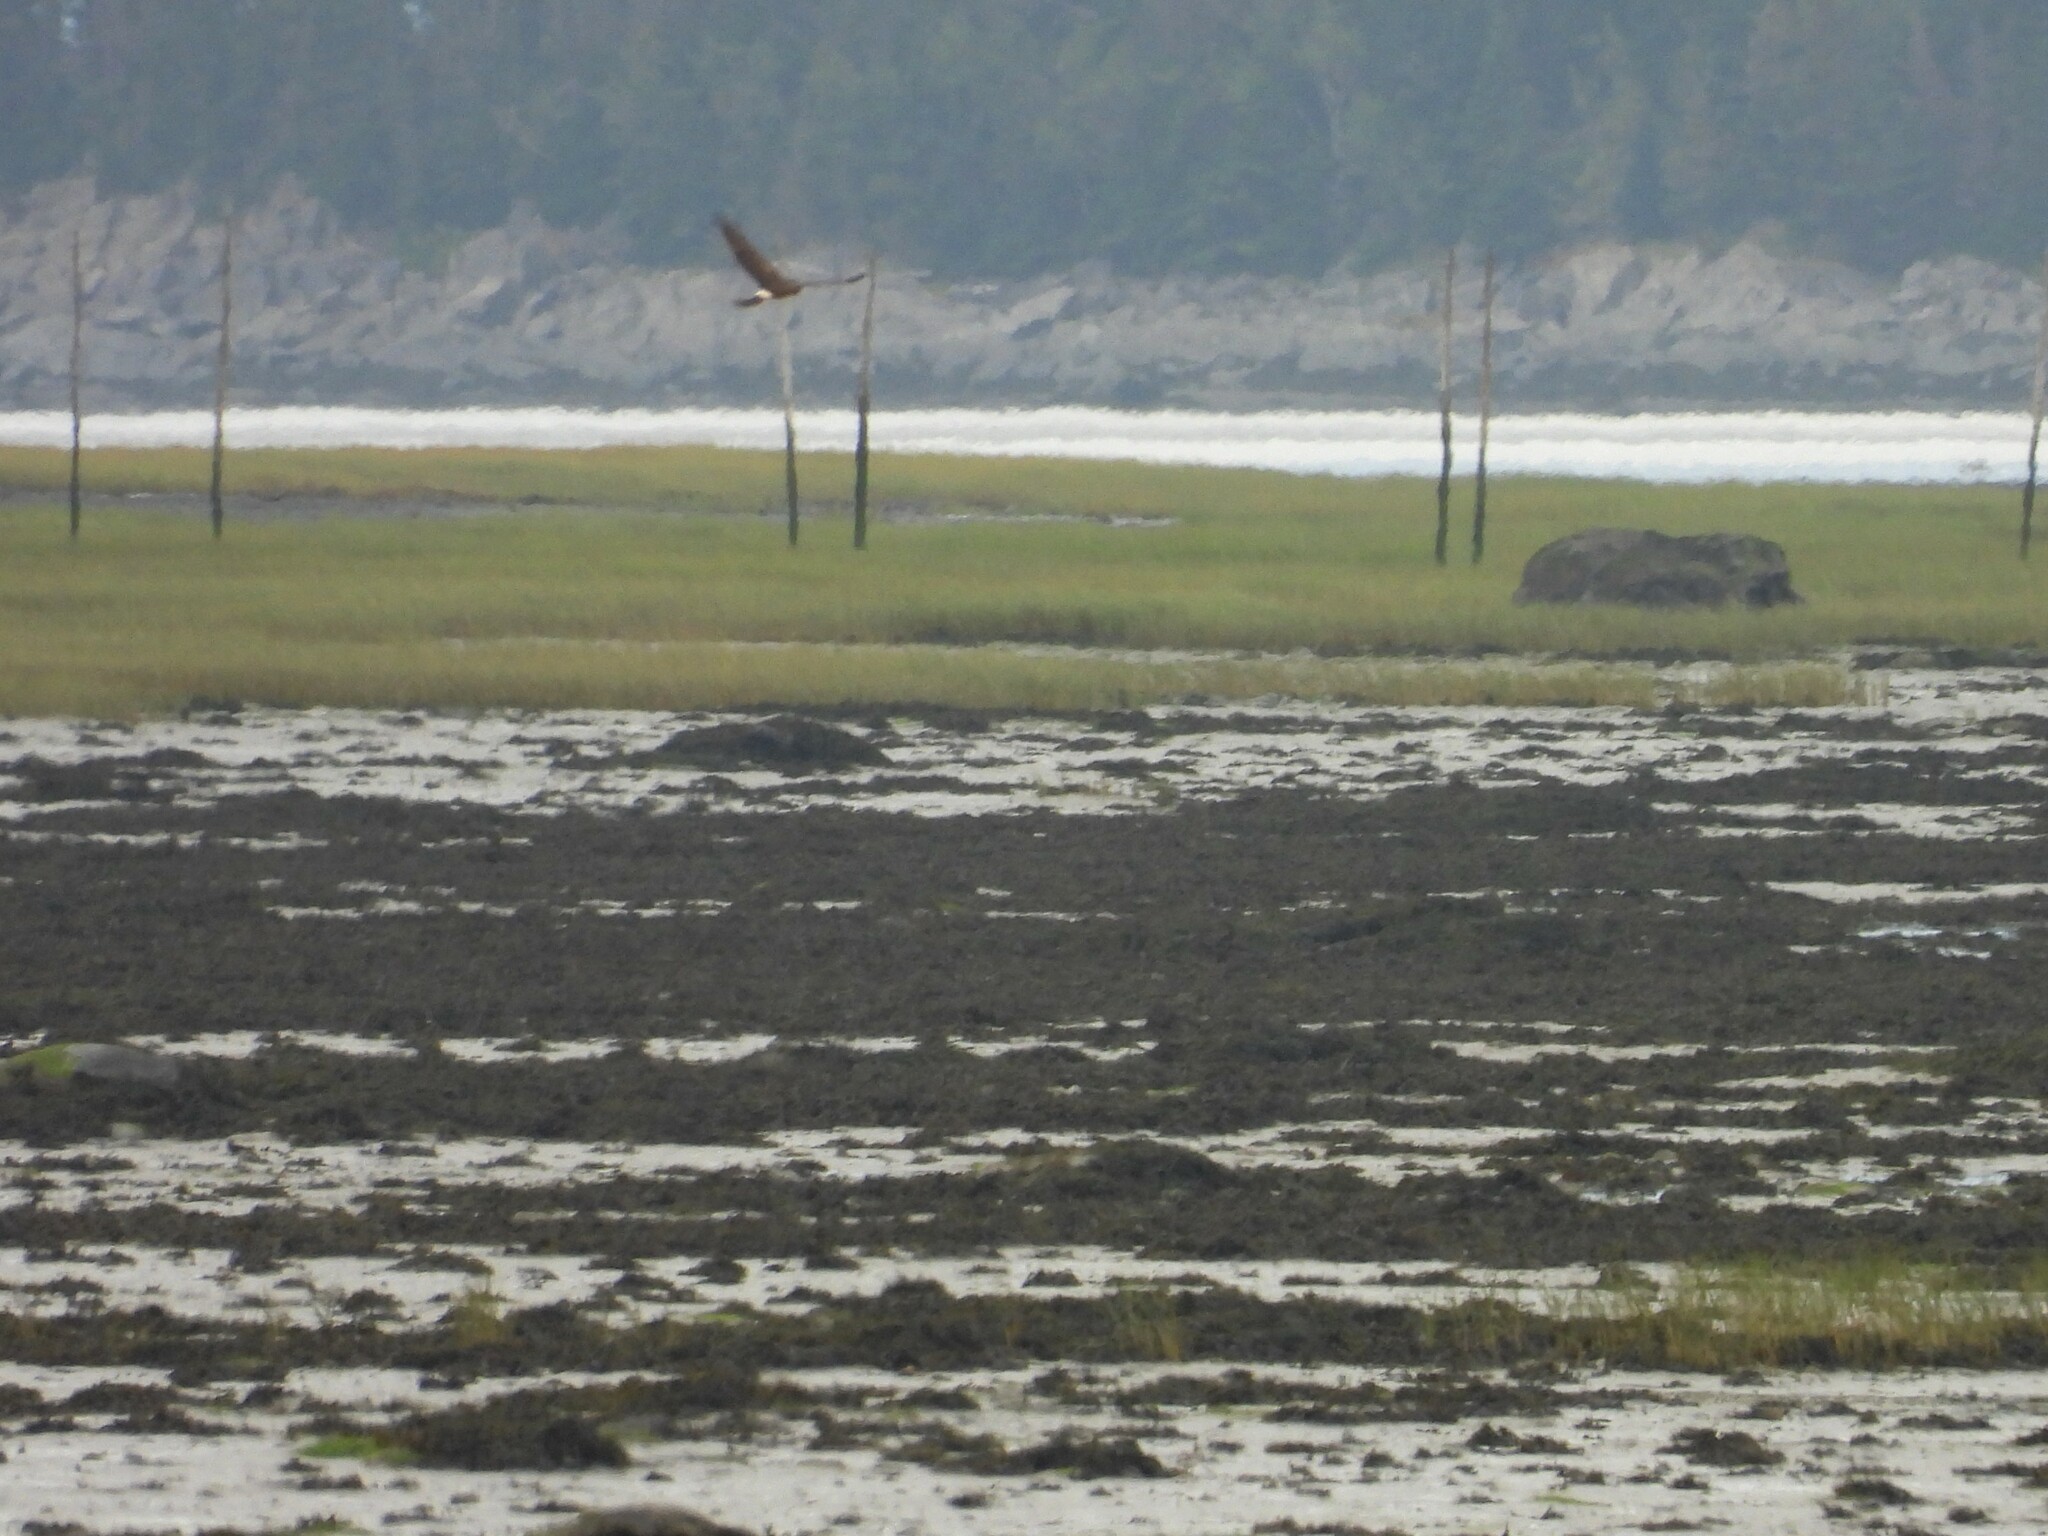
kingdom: Animalia
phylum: Chordata
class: Aves
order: Accipitriformes
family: Accipitridae
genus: Circus
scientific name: Circus cyaneus
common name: Hen harrier
